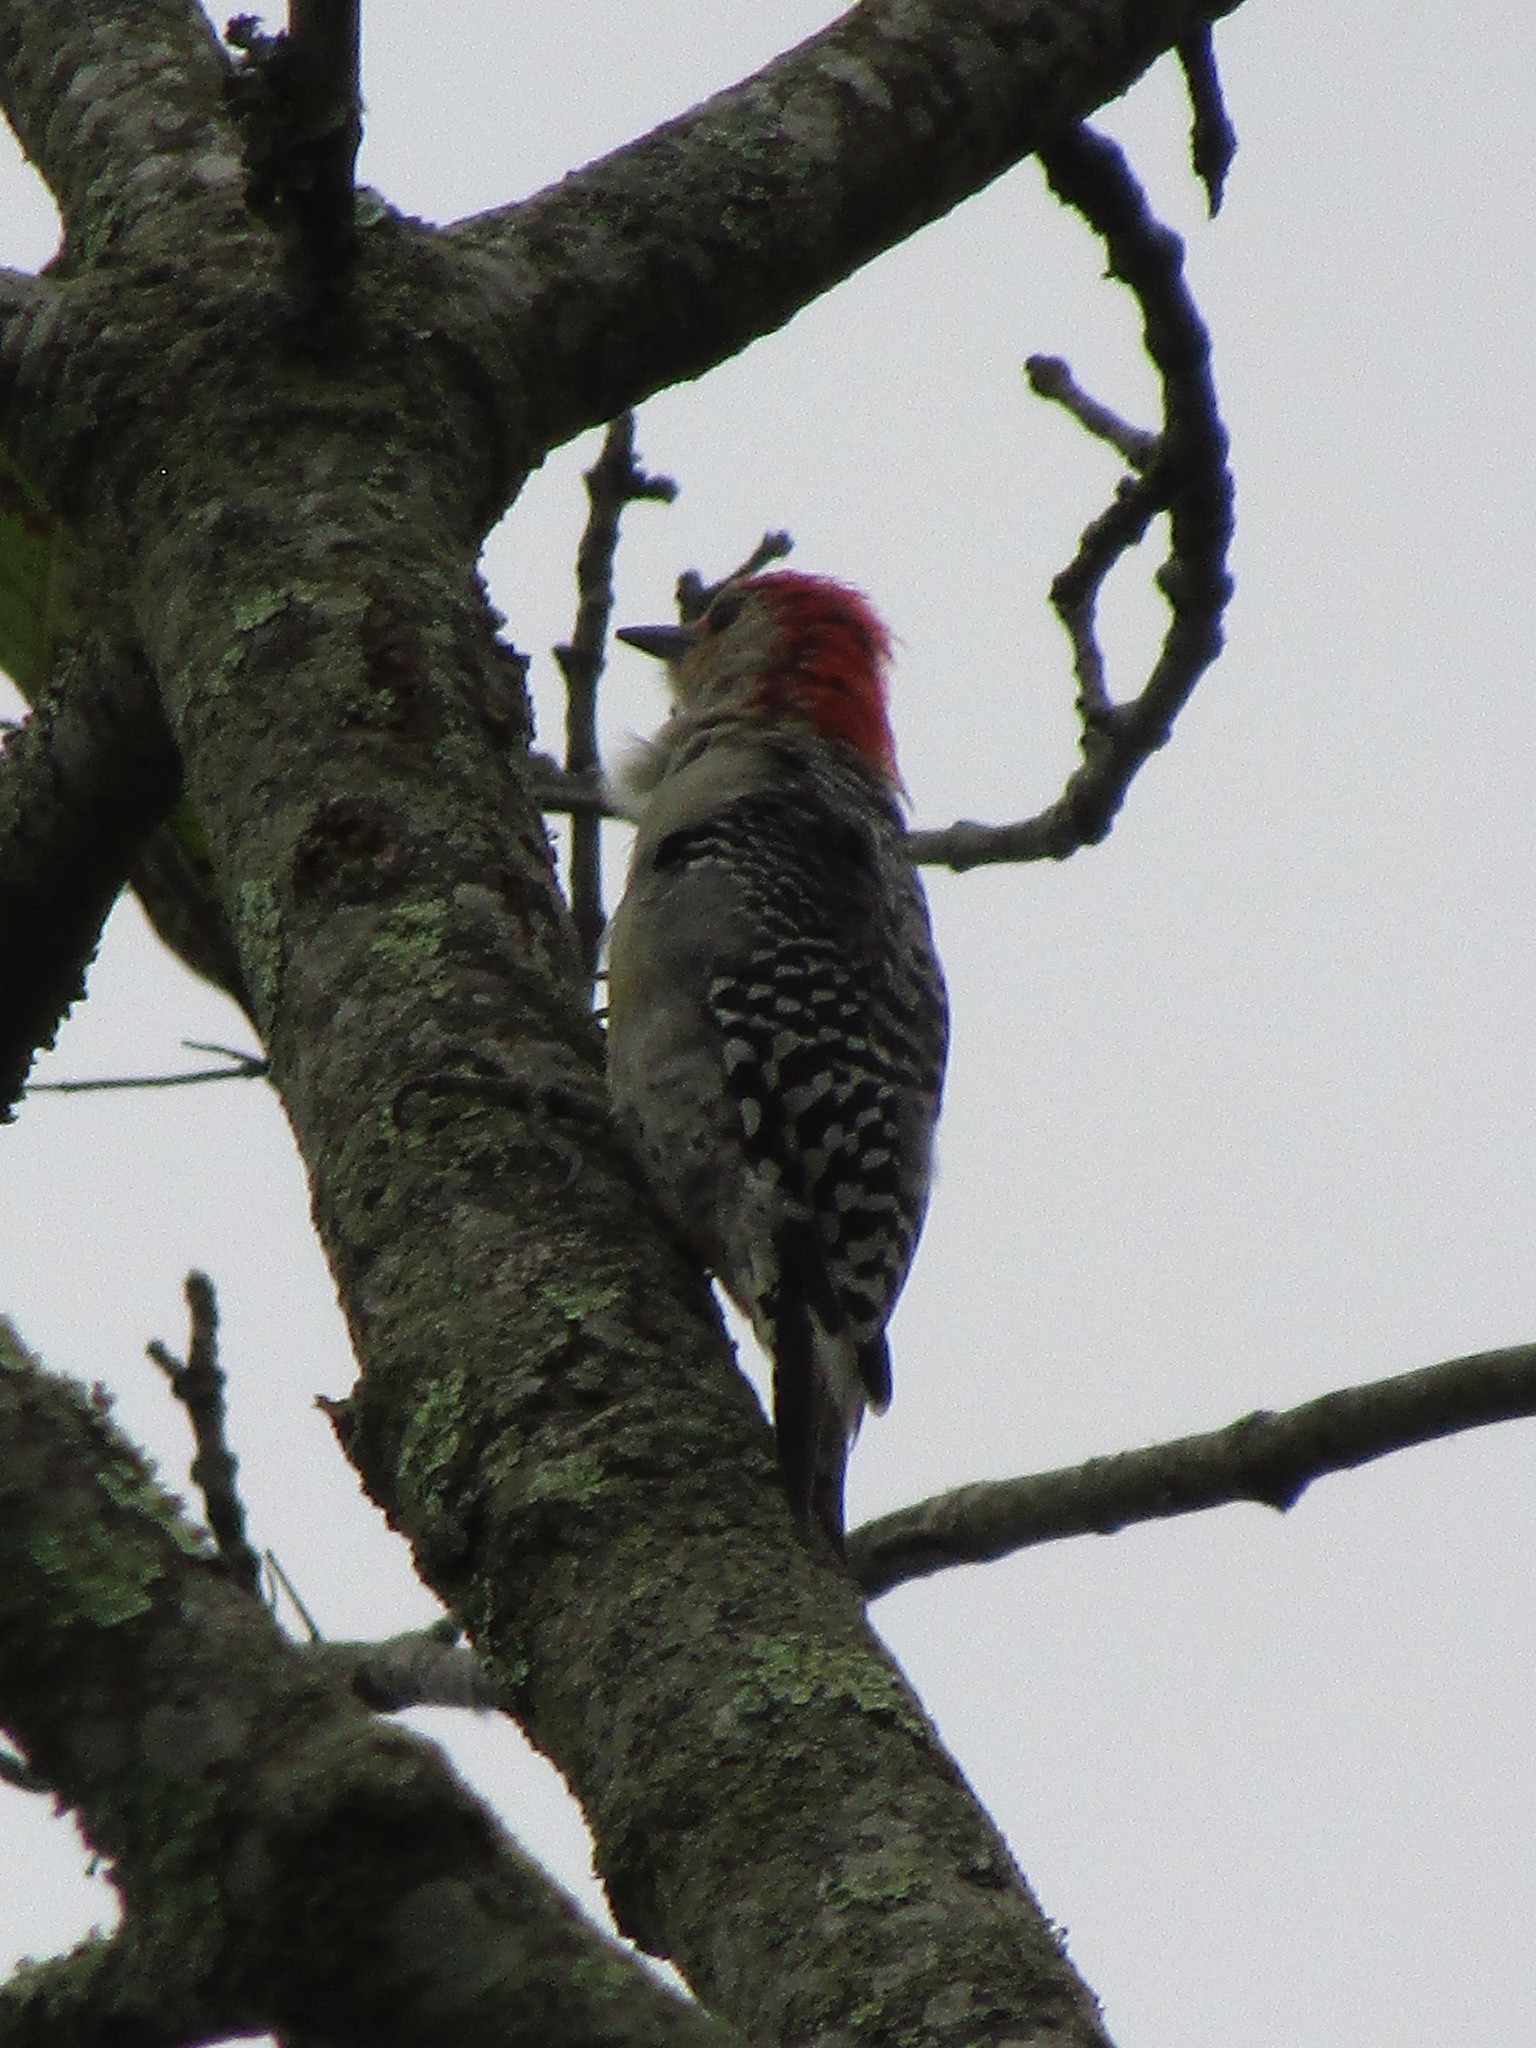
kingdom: Animalia
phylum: Chordata
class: Aves
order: Piciformes
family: Picidae
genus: Melanerpes
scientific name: Melanerpes carolinus
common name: Red-bellied woodpecker
